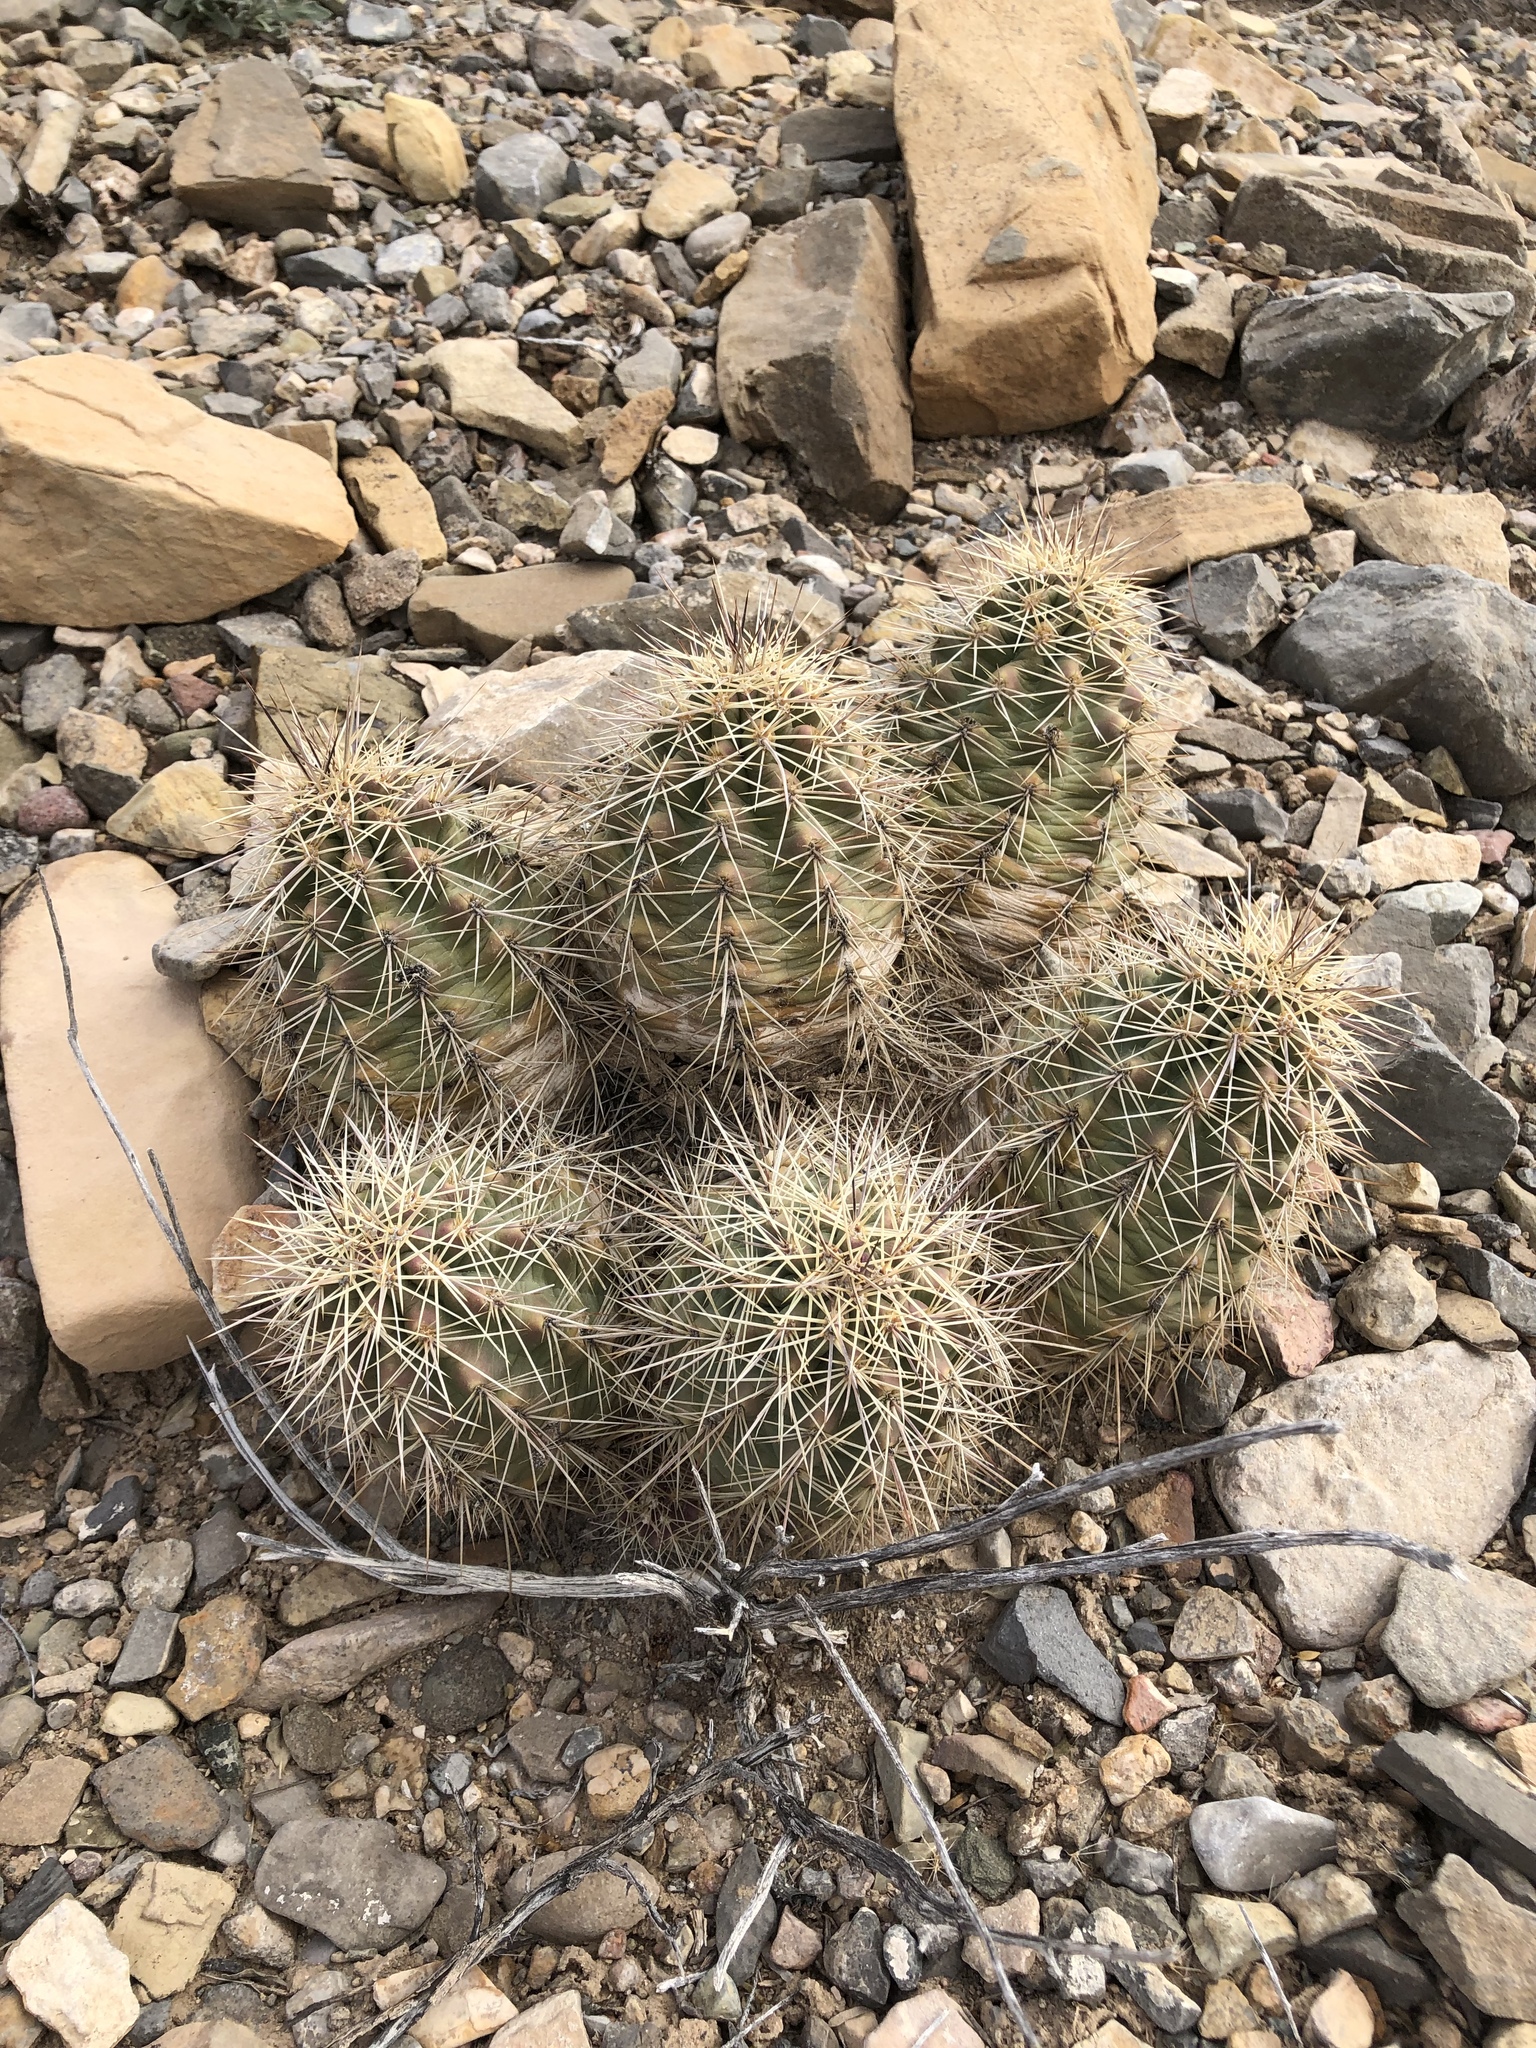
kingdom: Plantae
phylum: Tracheophyta
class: Magnoliopsida
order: Caryophyllales
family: Cactaceae
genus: Echinocereus
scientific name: Echinocereus coccineus
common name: Scarlet hedgehog cactus
